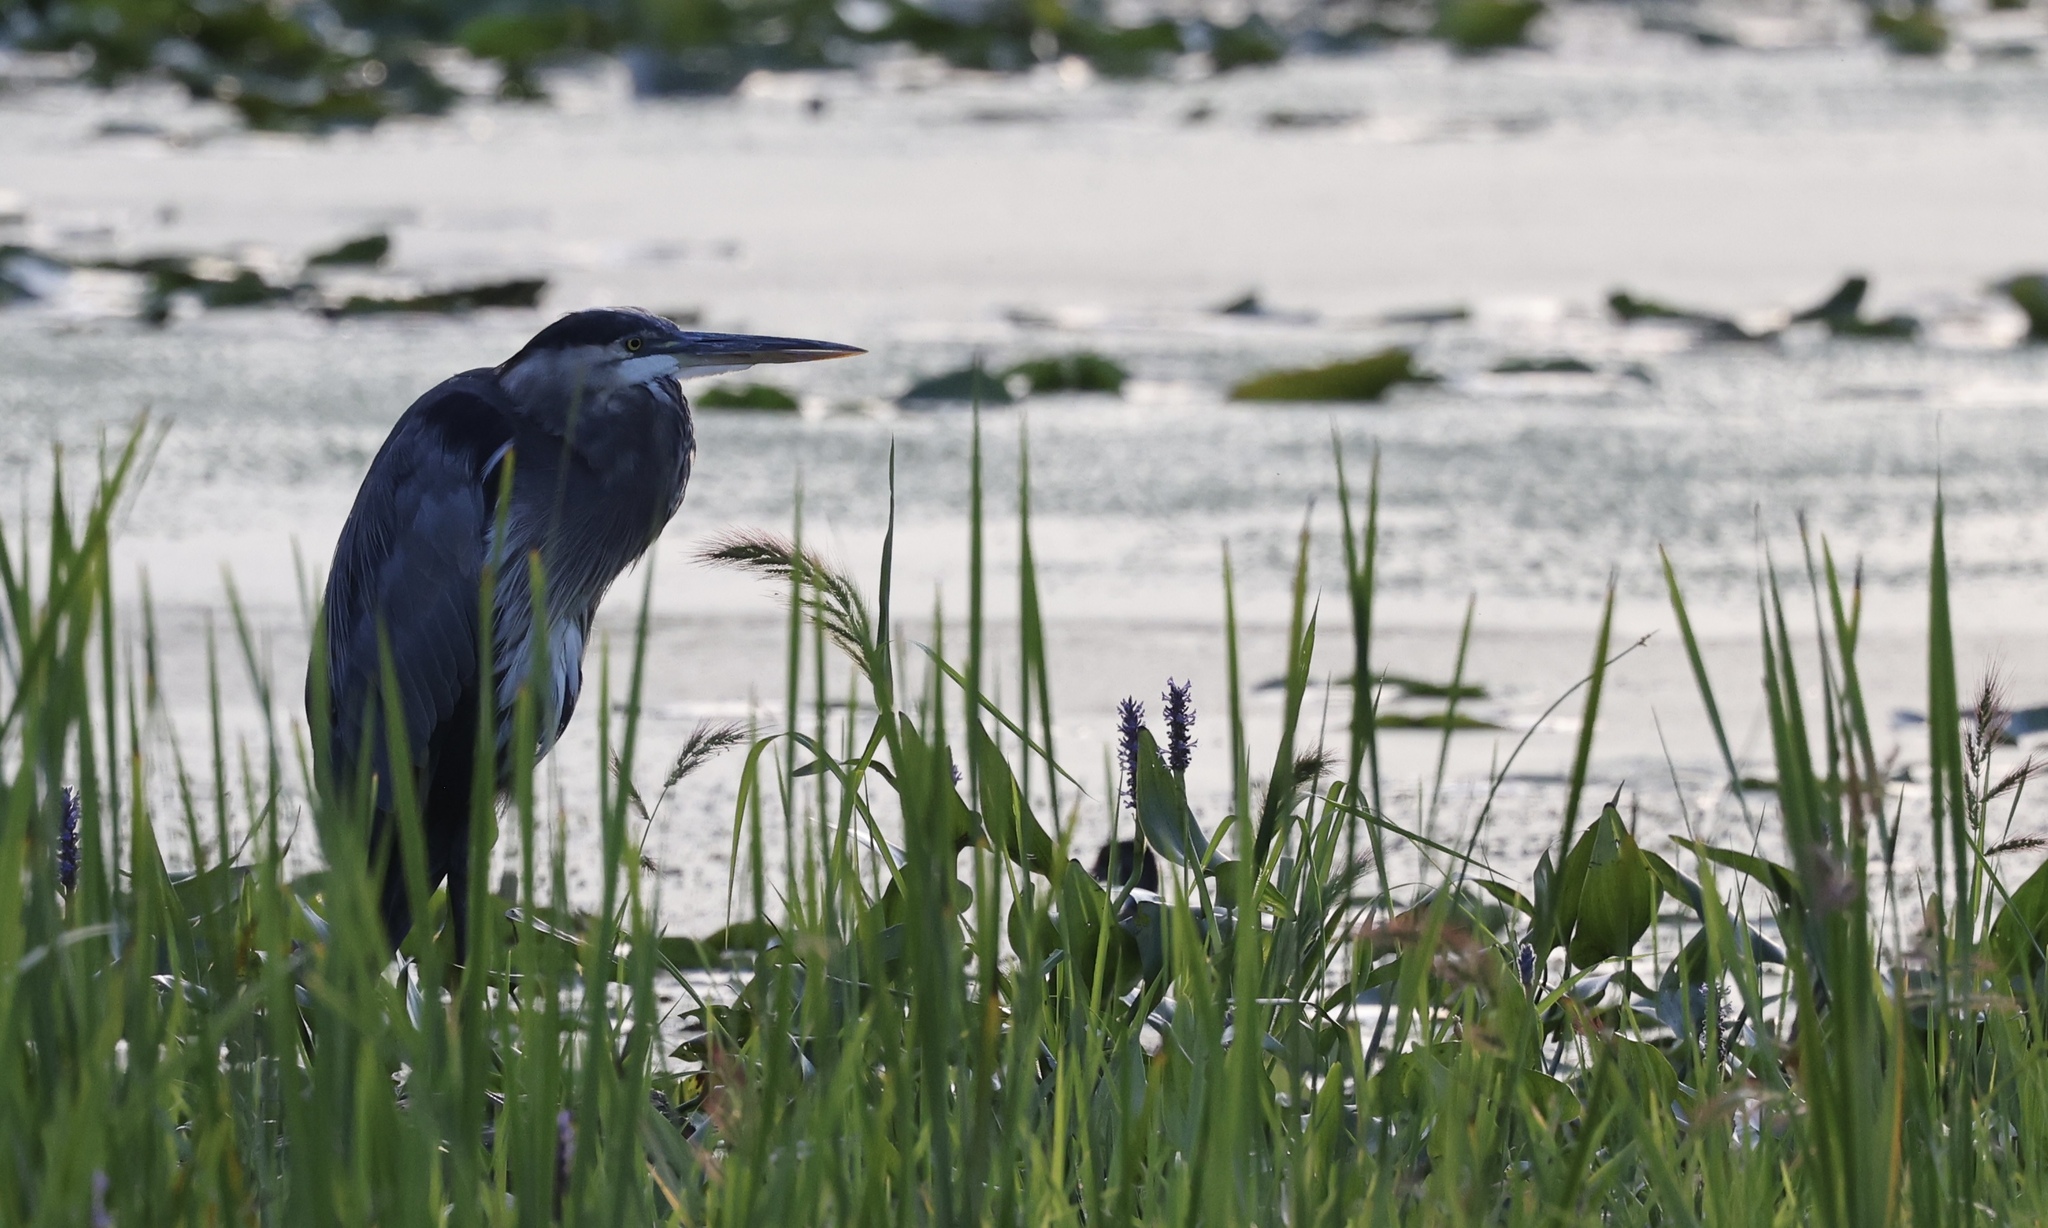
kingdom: Animalia
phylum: Chordata
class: Aves
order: Pelecaniformes
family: Ardeidae
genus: Ardea
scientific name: Ardea herodias
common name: Great blue heron
